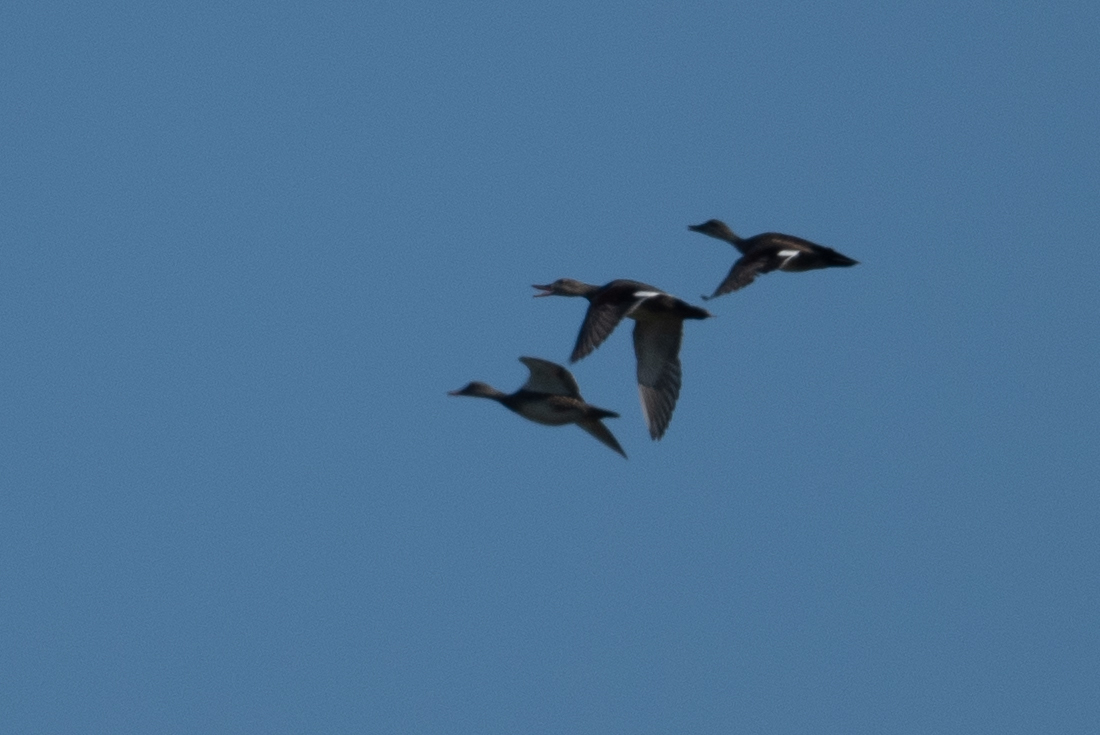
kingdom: Animalia
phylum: Chordata
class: Aves
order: Anseriformes
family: Anatidae
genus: Mareca
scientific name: Mareca strepera
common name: Gadwall
